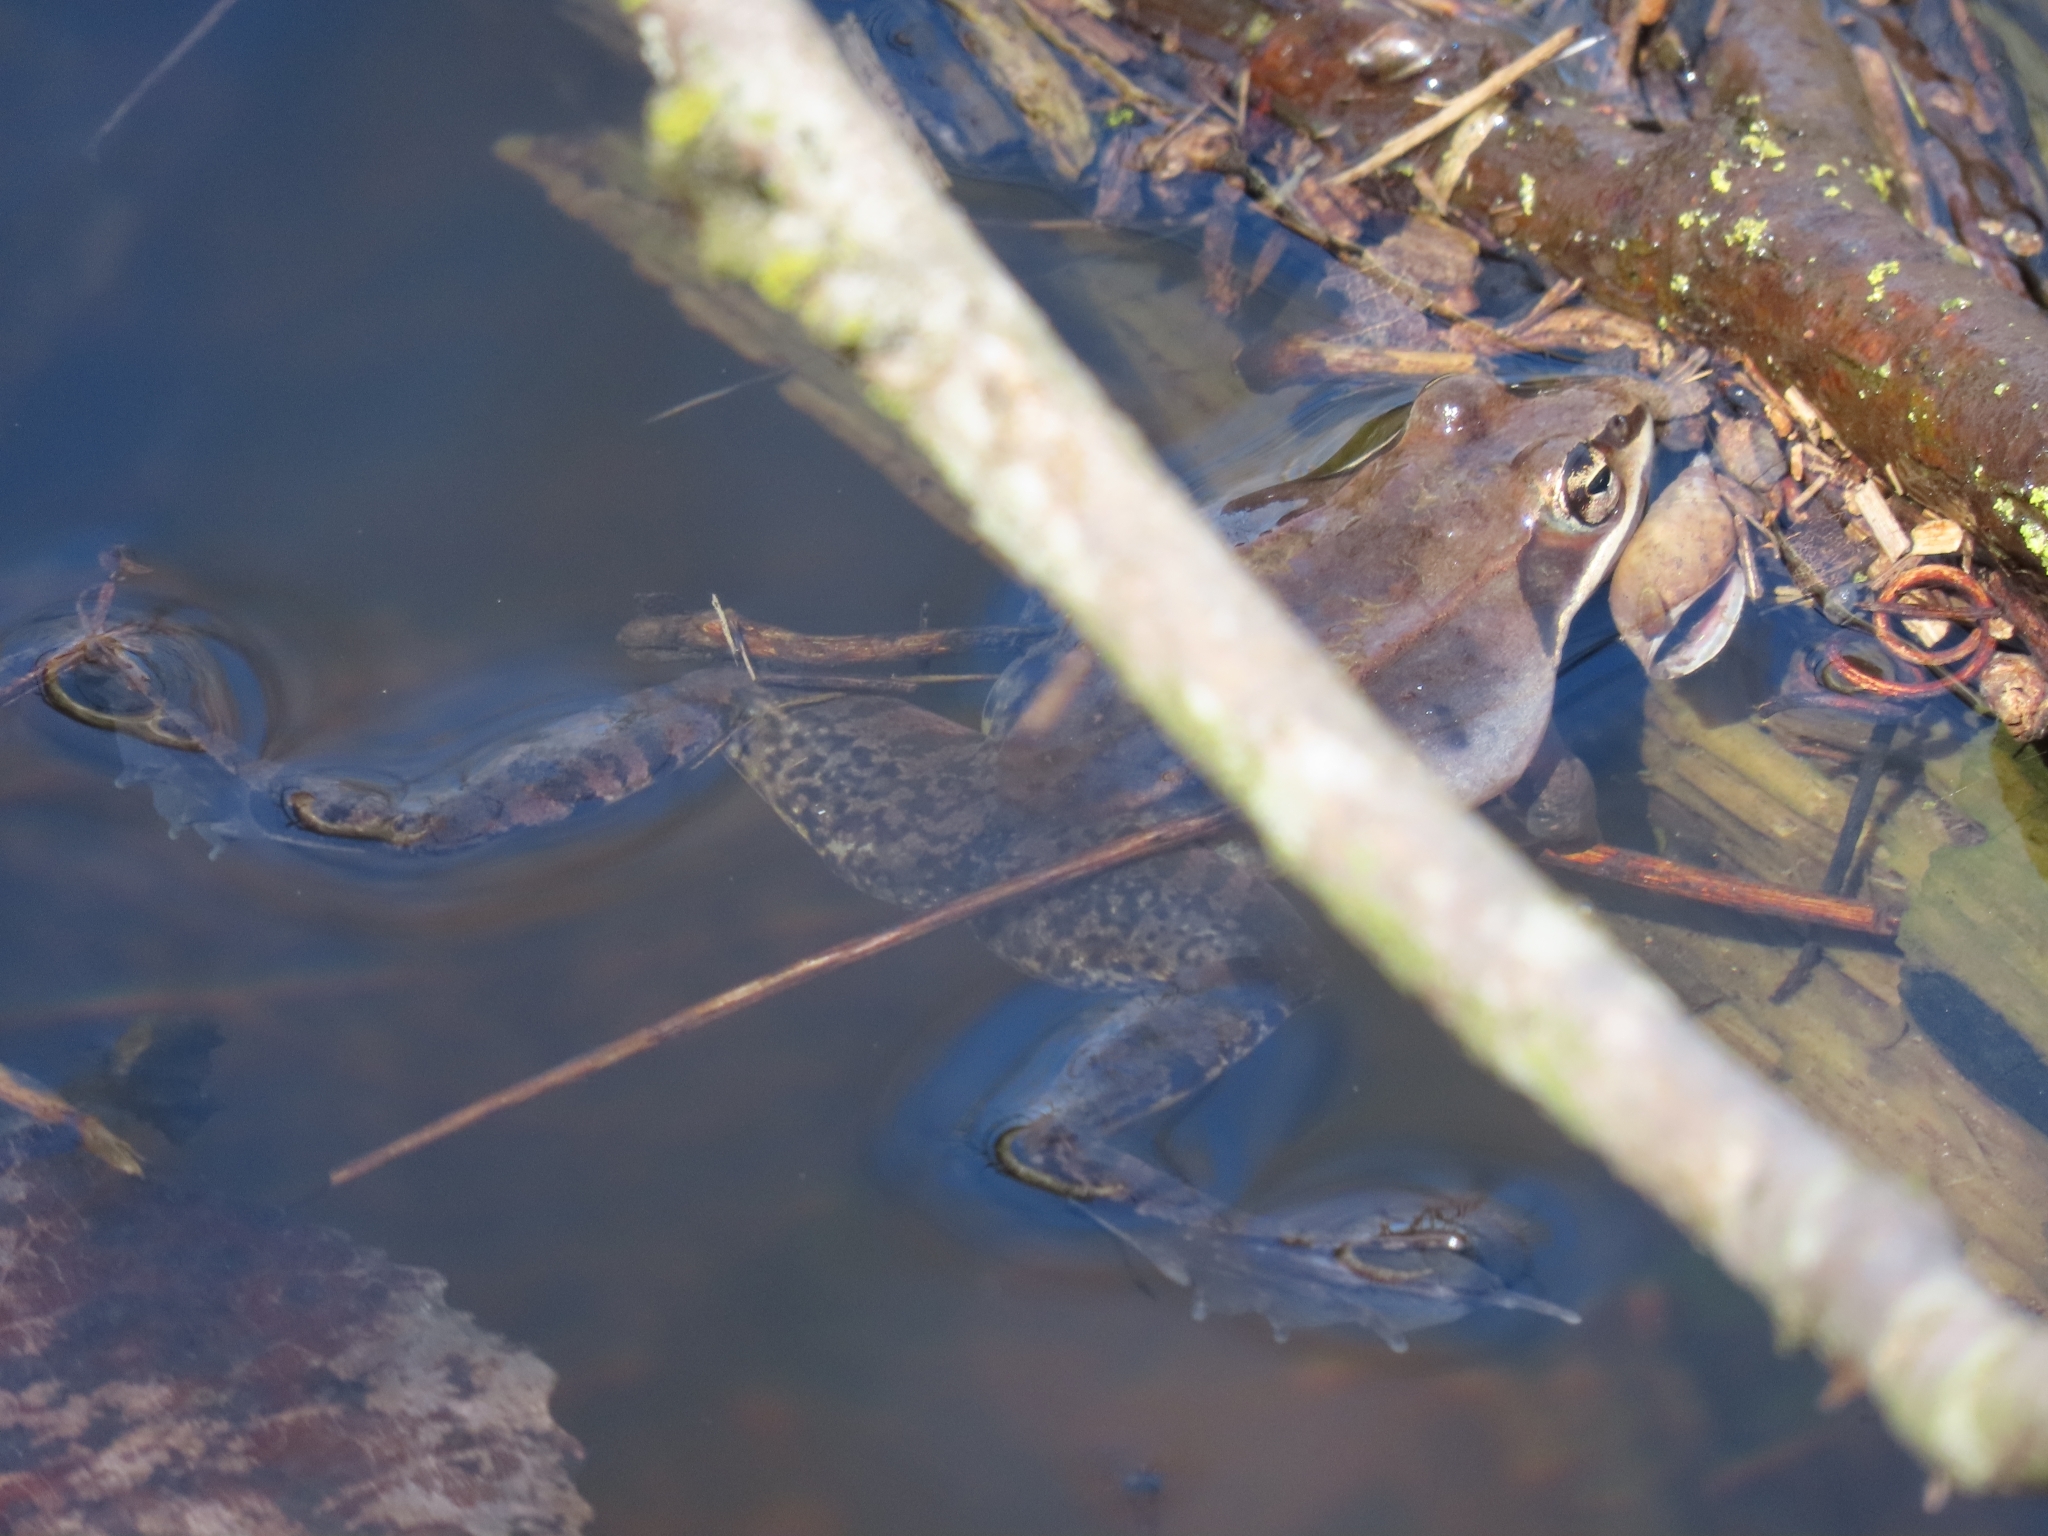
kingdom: Animalia
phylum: Chordata
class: Amphibia
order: Anura
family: Ranidae
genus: Lithobates
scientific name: Lithobates sylvaticus
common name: Wood frog
